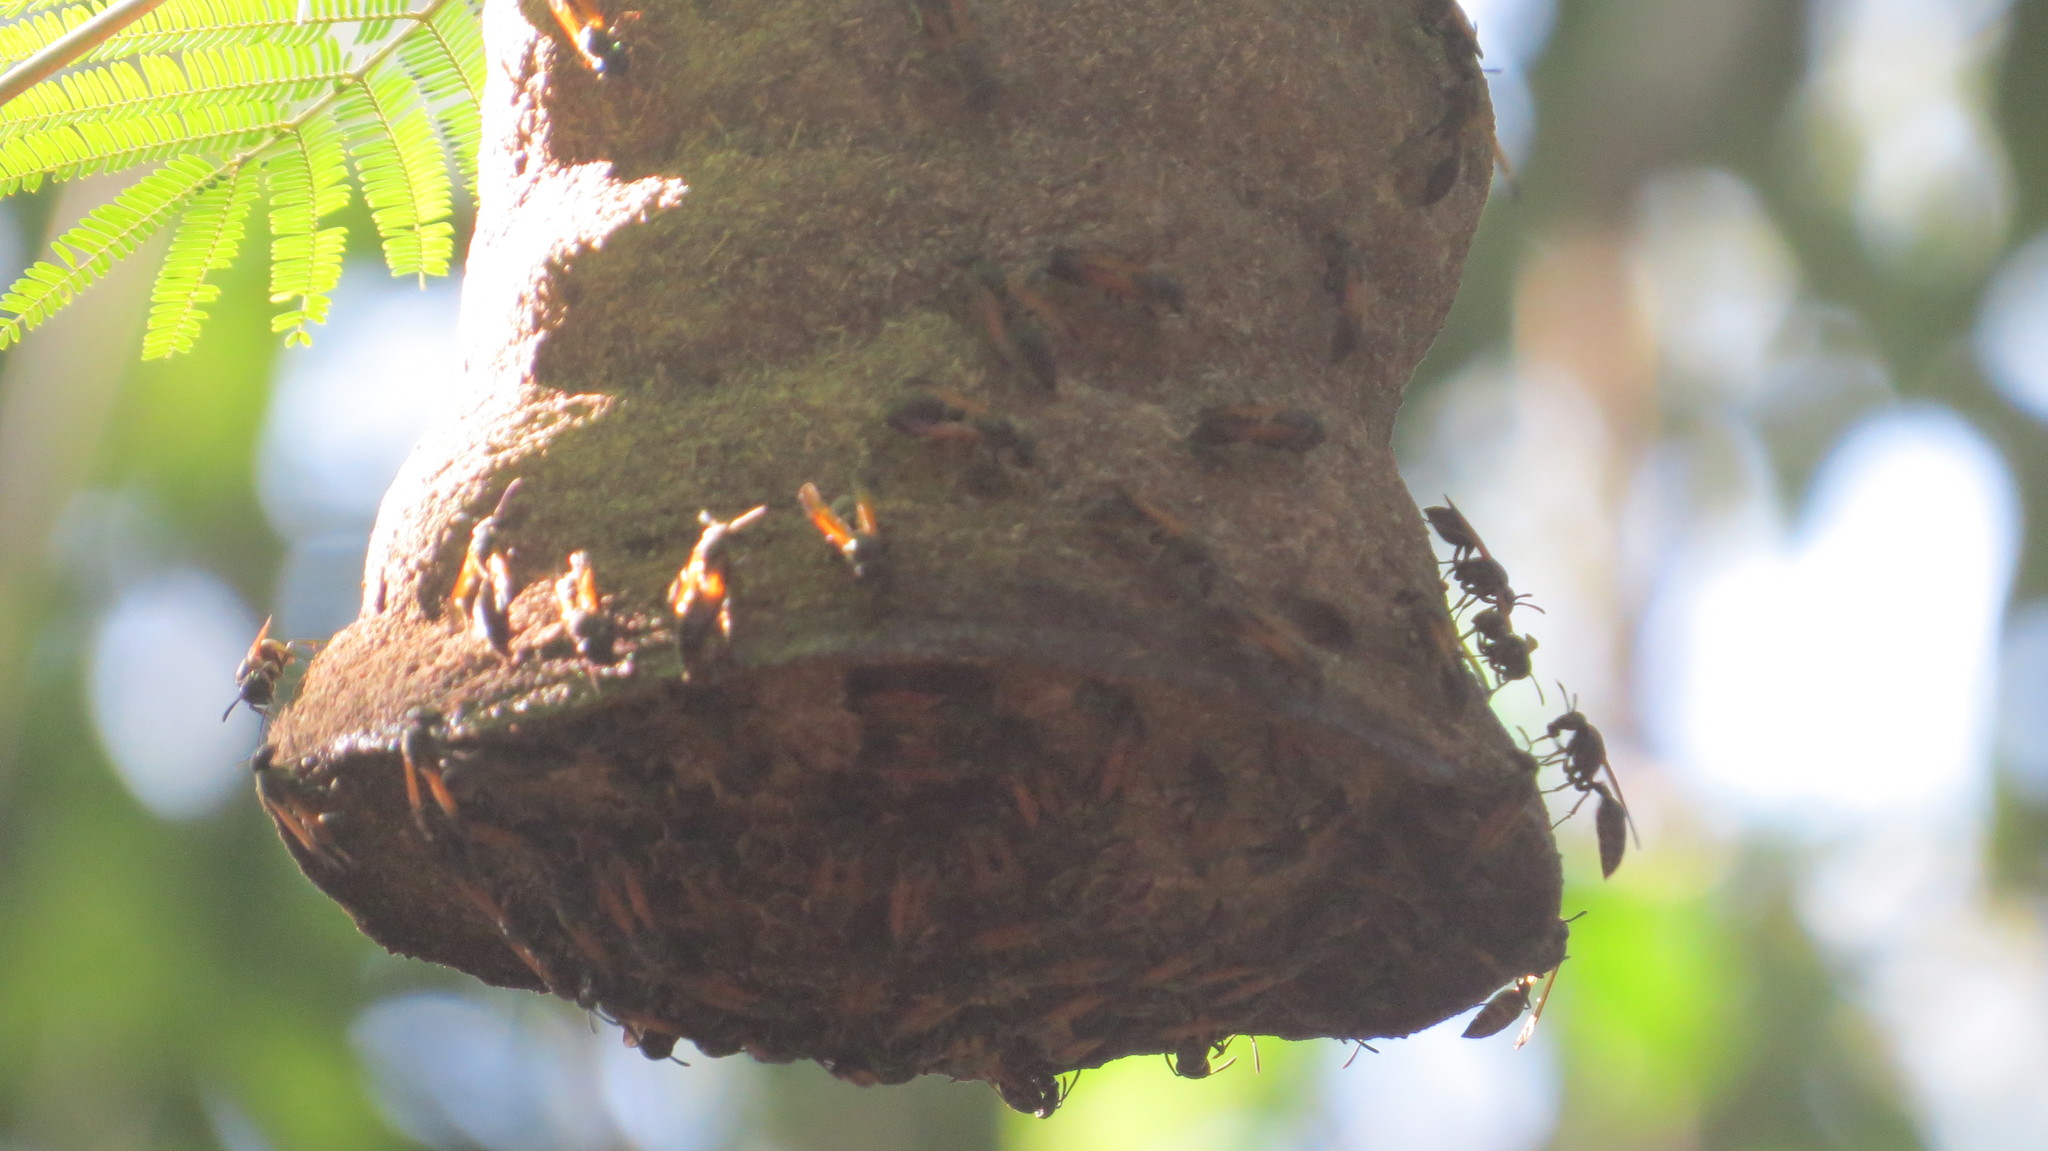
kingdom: Animalia
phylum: Arthropoda
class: Insecta
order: Hymenoptera
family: Eumenidae
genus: Polybia
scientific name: Polybia rejecta
